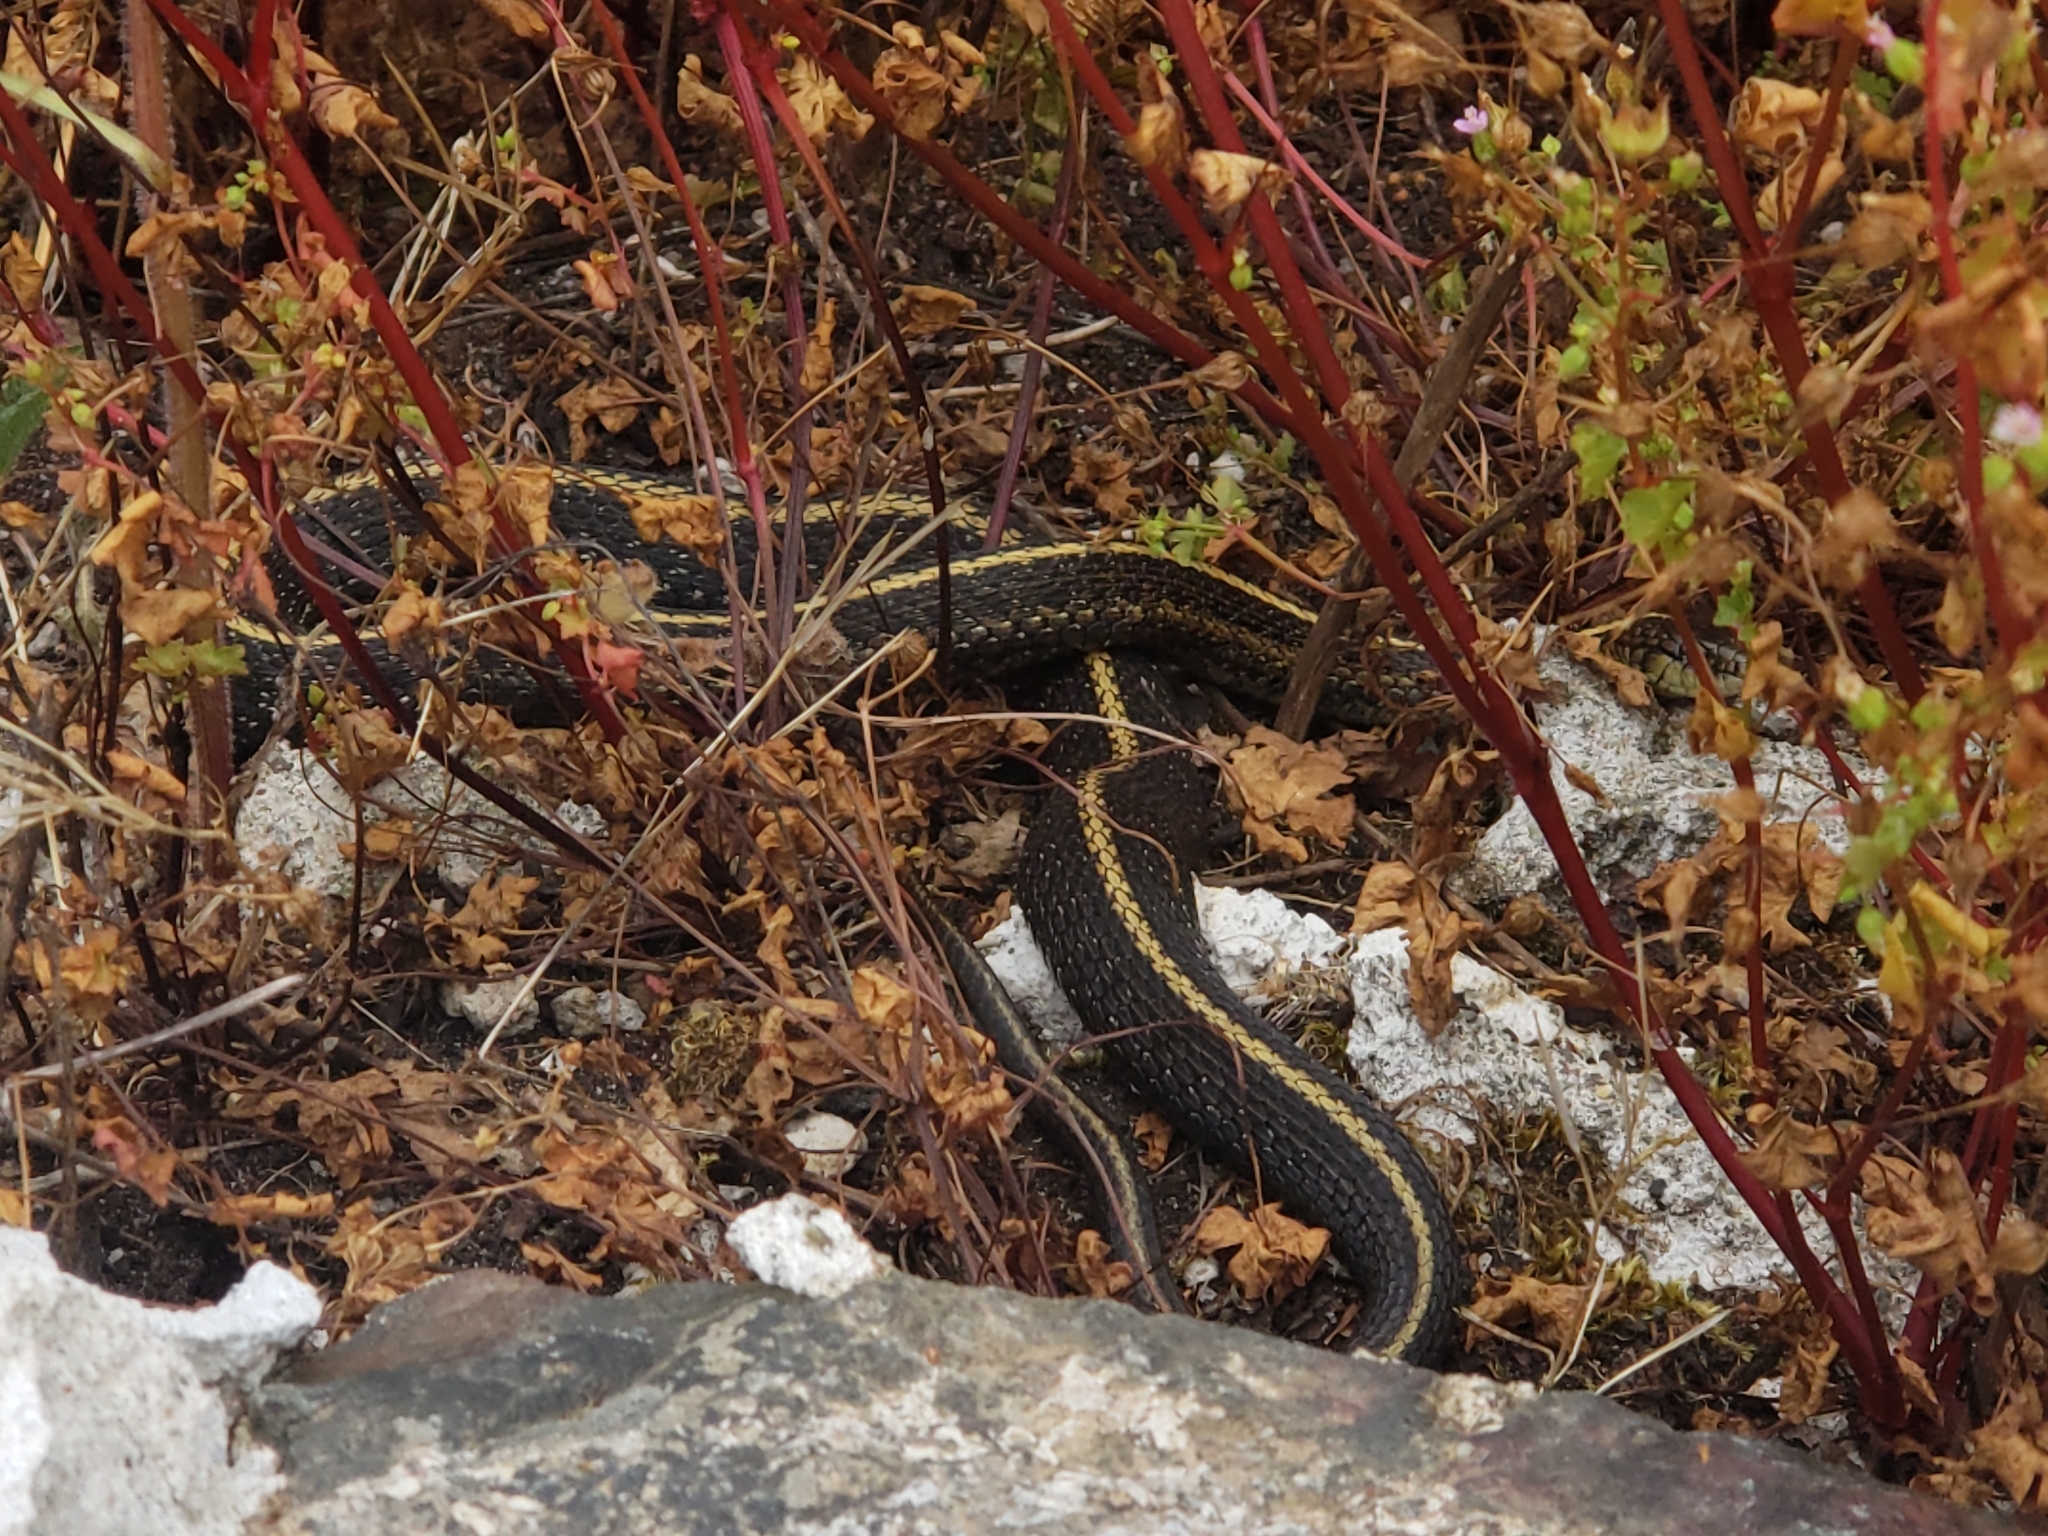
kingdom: Animalia
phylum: Chordata
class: Squamata
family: Colubridae
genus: Thamnophis
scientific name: Thamnophis ordinoides
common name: Northwestern garter snake
